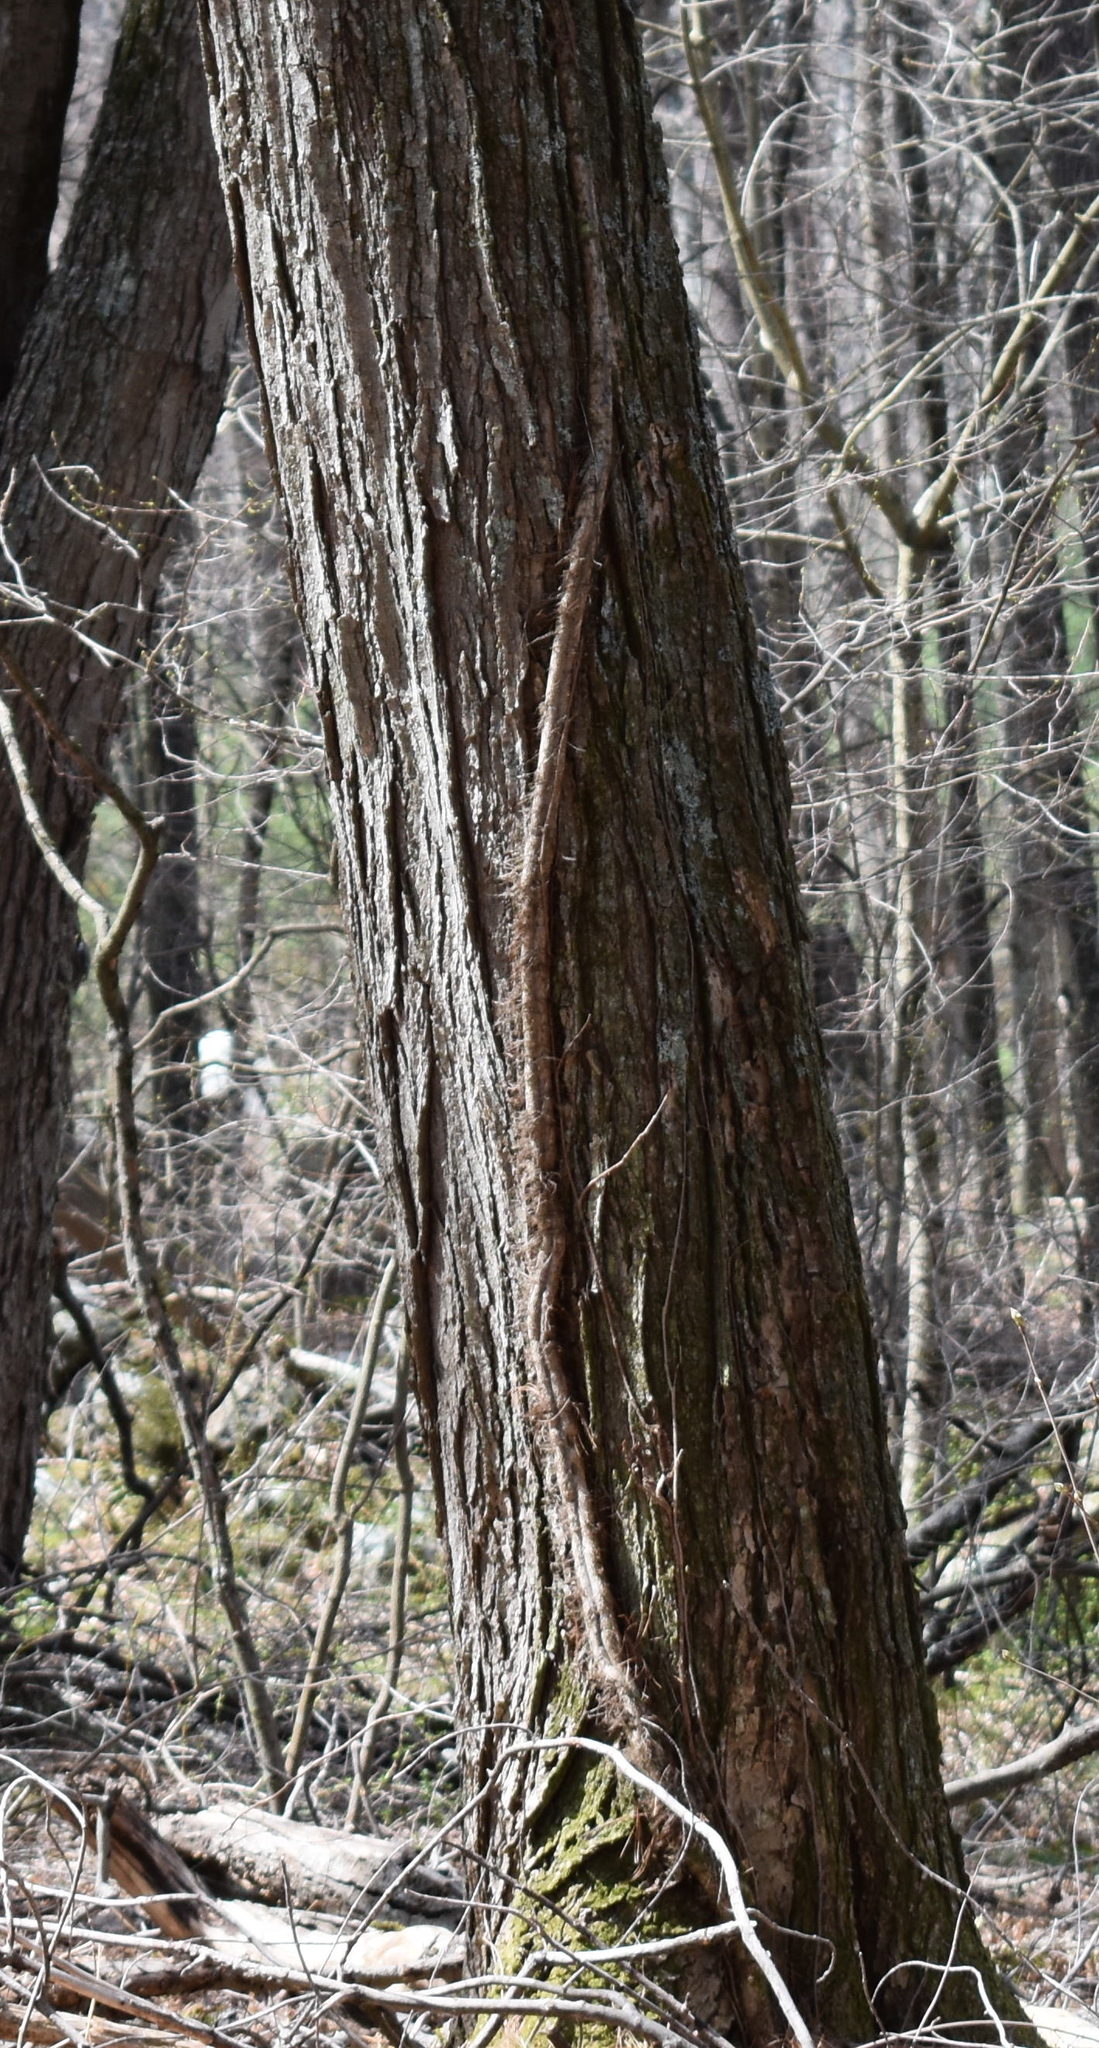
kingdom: Plantae
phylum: Tracheophyta
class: Magnoliopsida
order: Sapindales
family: Anacardiaceae
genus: Toxicodendron
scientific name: Toxicodendron radicans
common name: Poison ivy
